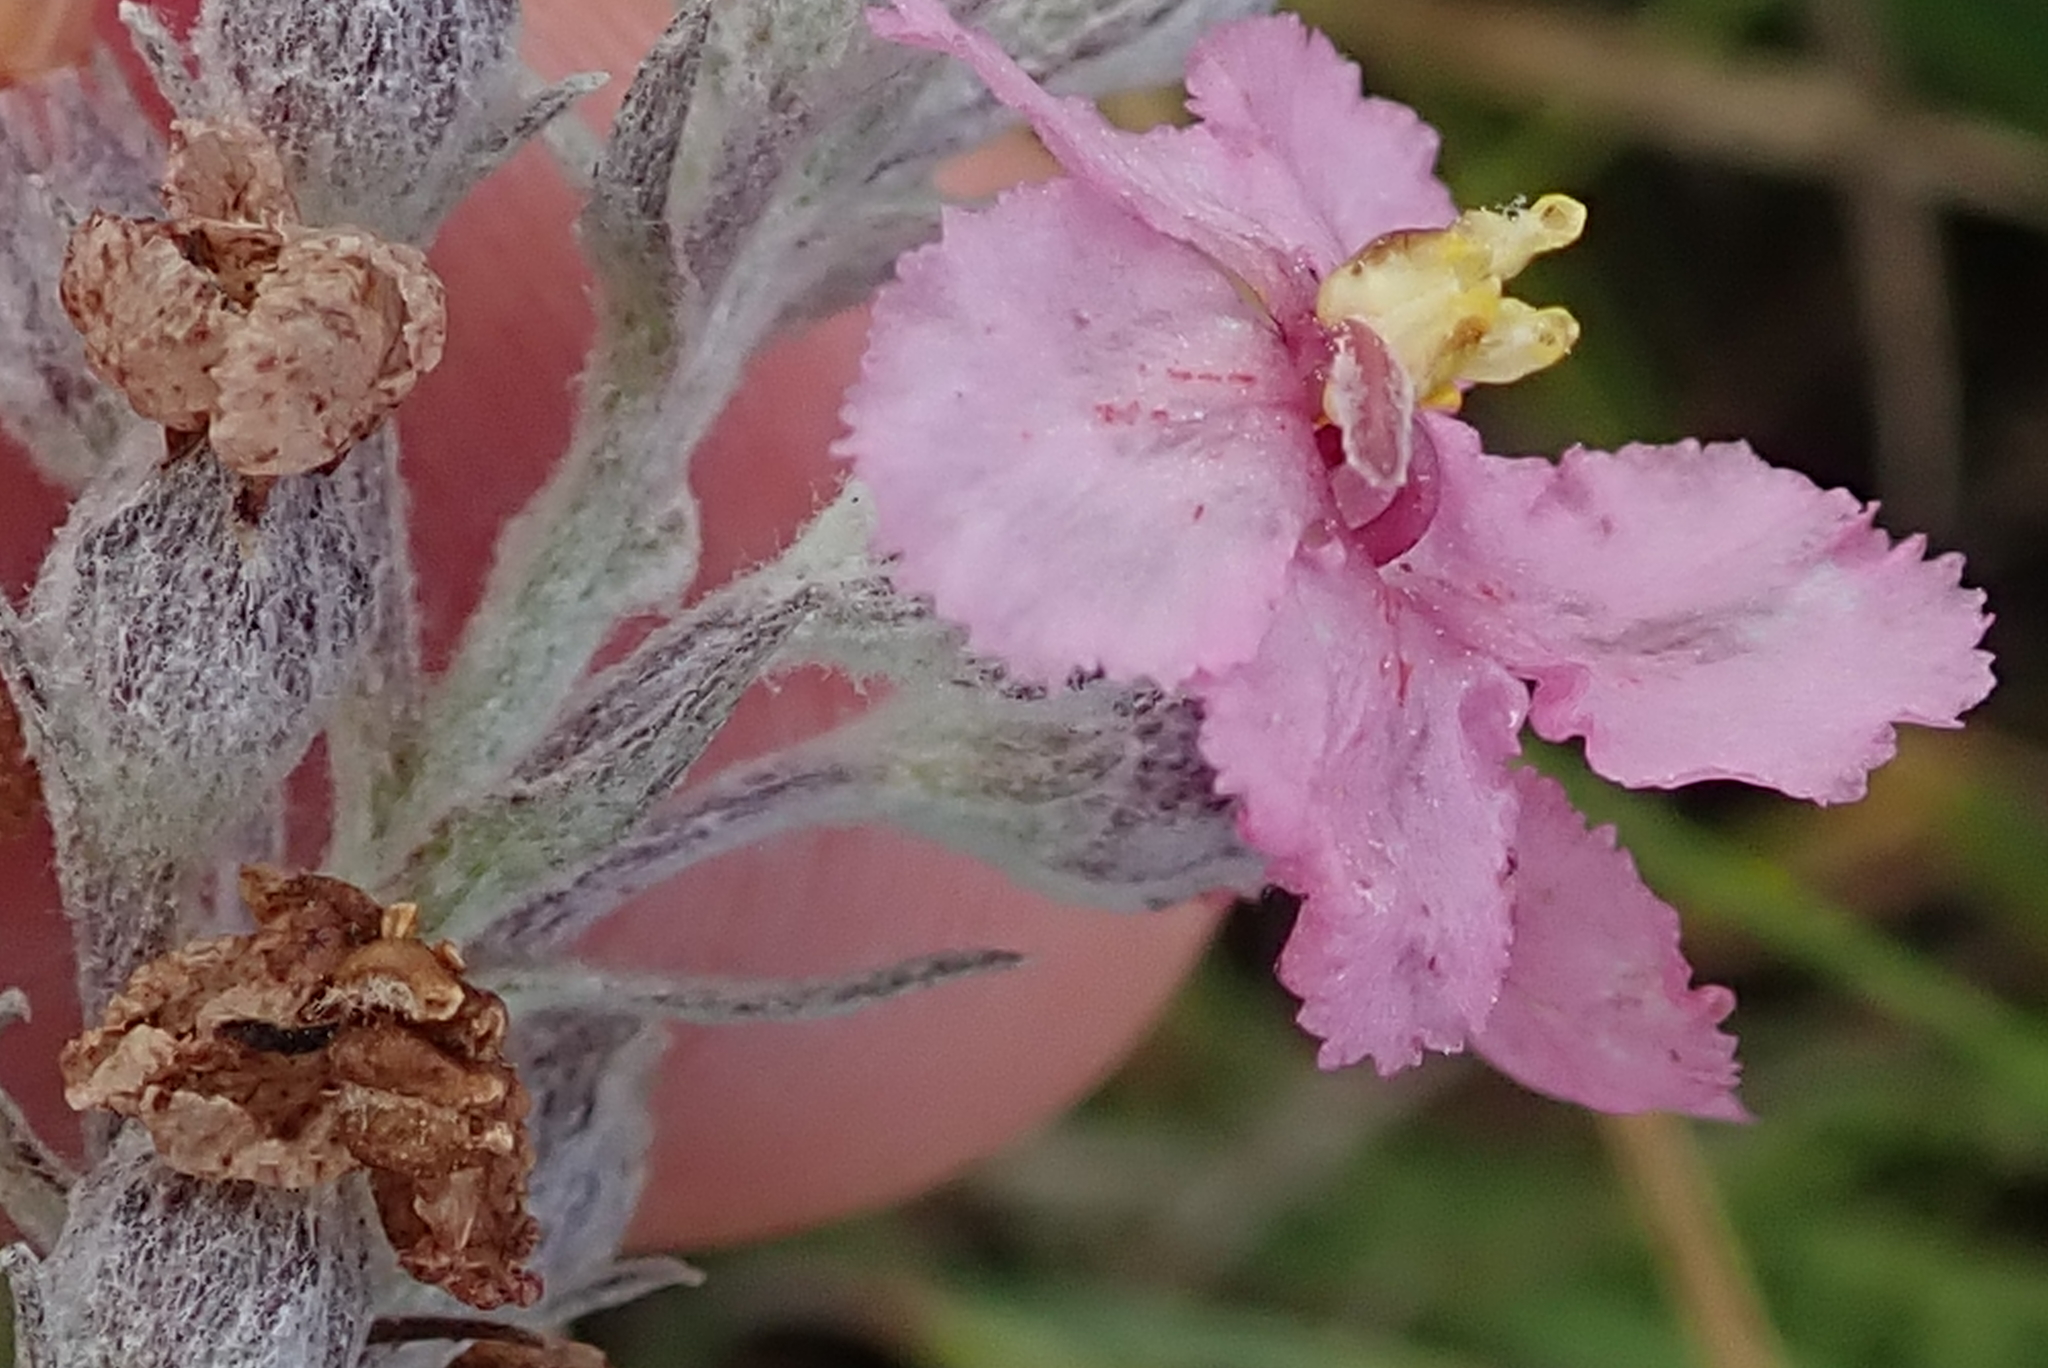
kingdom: Plantae
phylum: Tracheophyta
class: Magnoliopsida
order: Lamiales
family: Orobanchaceae
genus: Sopubia
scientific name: Sopubia cana
